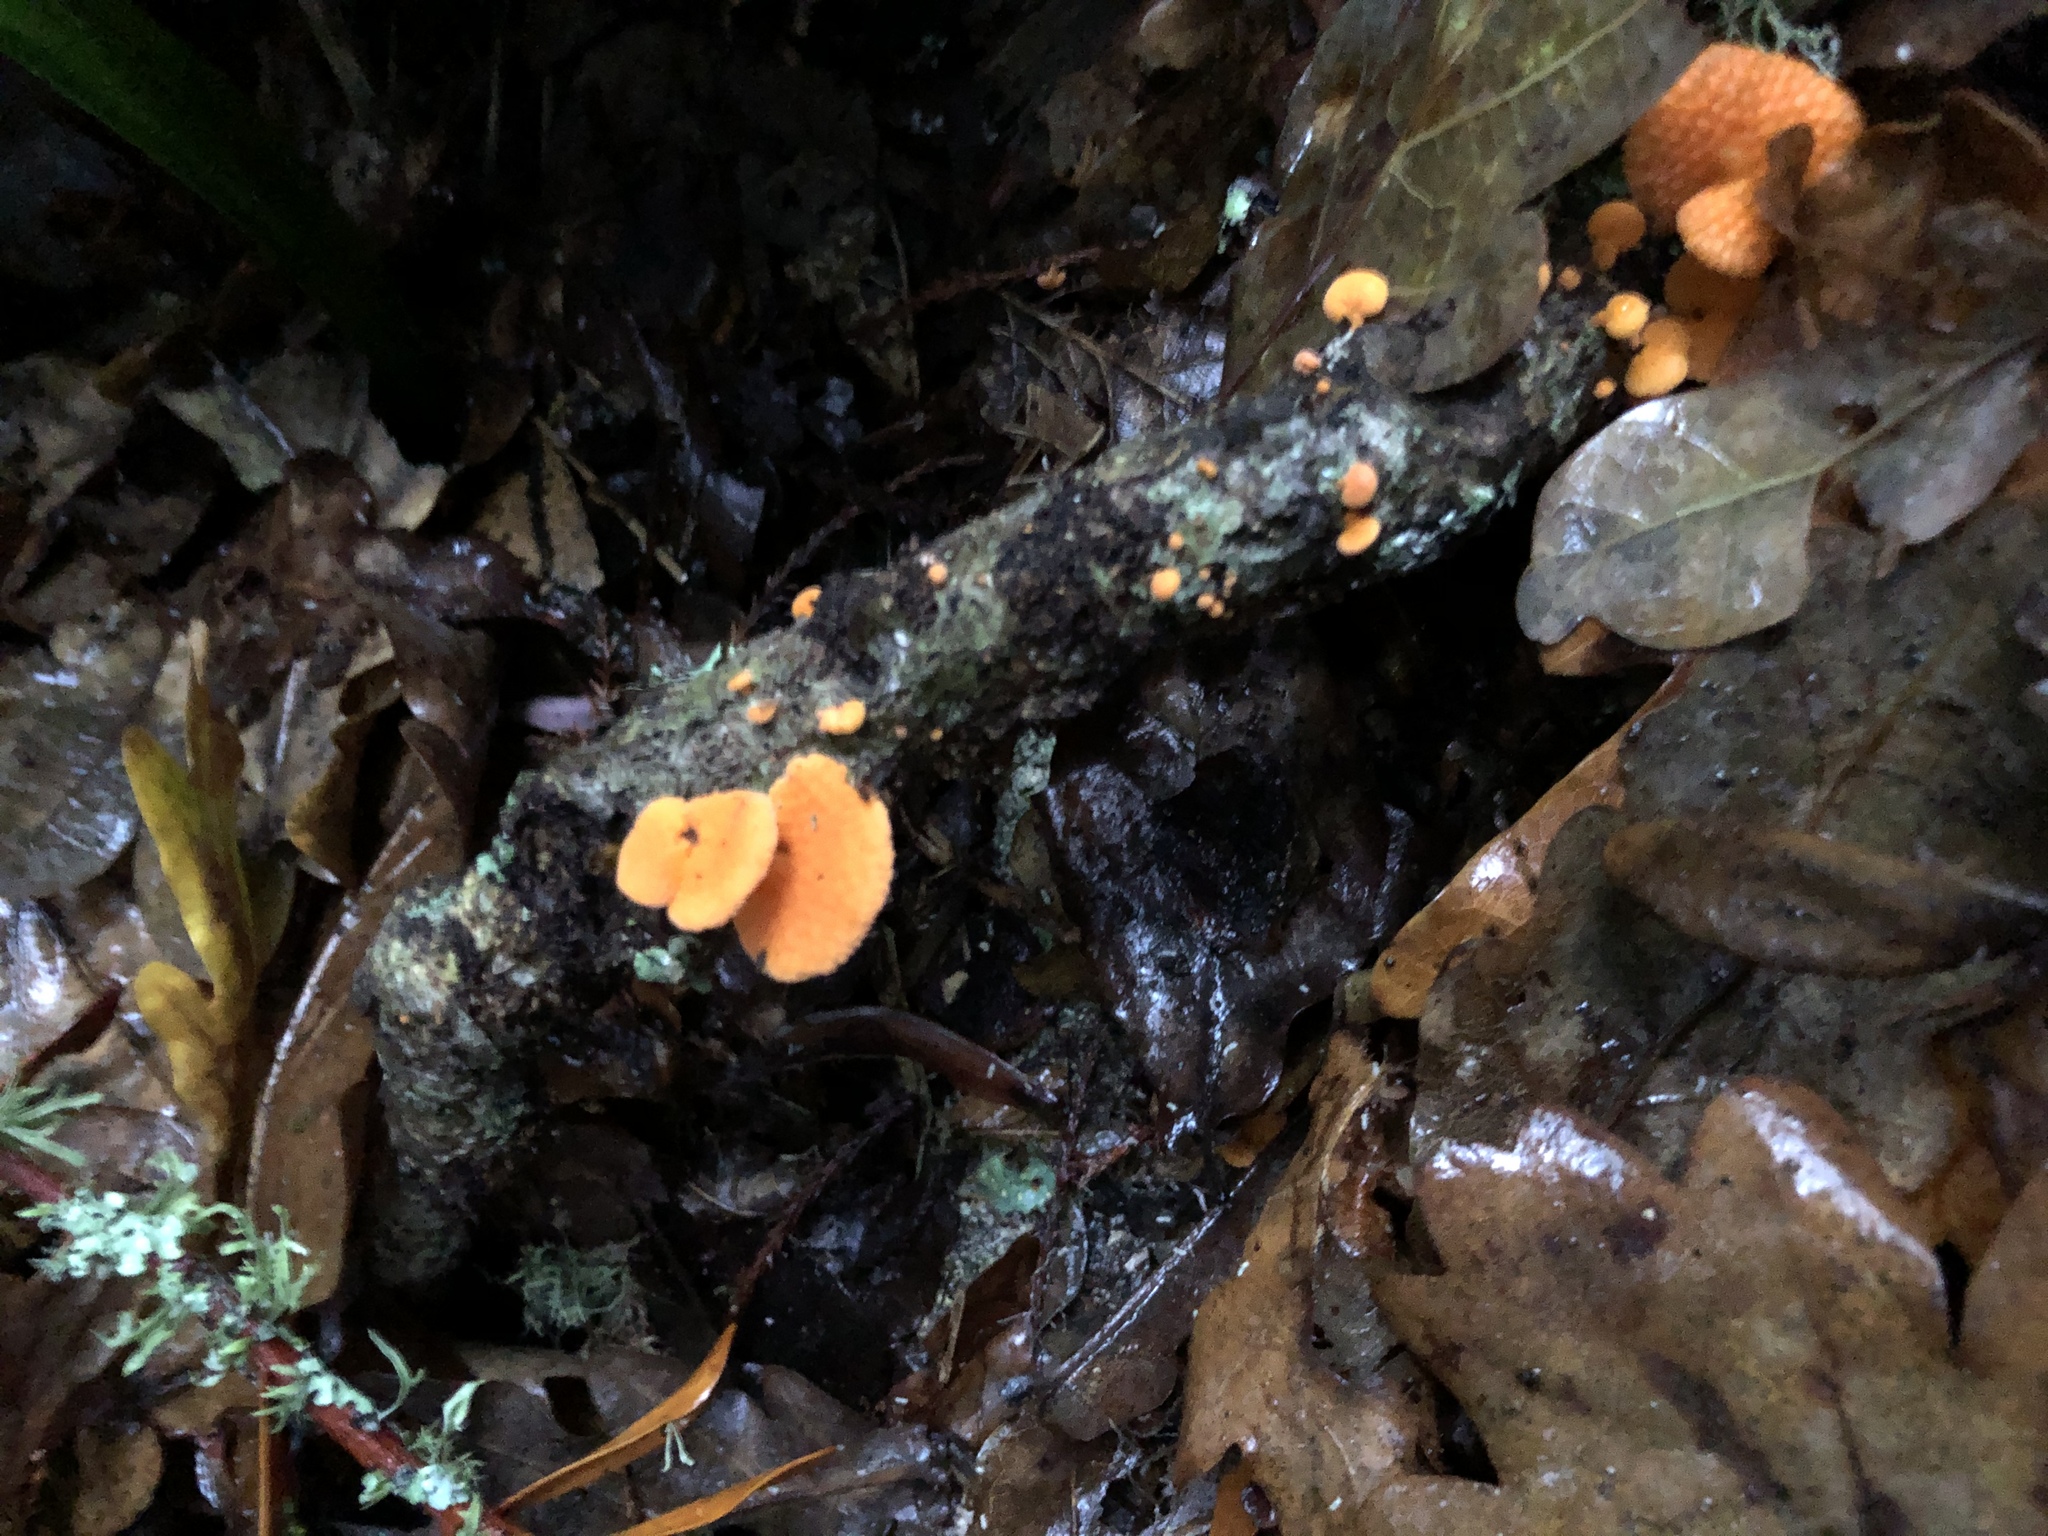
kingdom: Fungi
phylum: Basidiomycota
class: Agaricomycetes
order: Agaricales
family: Mycenaceae
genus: Favolaschia
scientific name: Favolaschia claudopus
